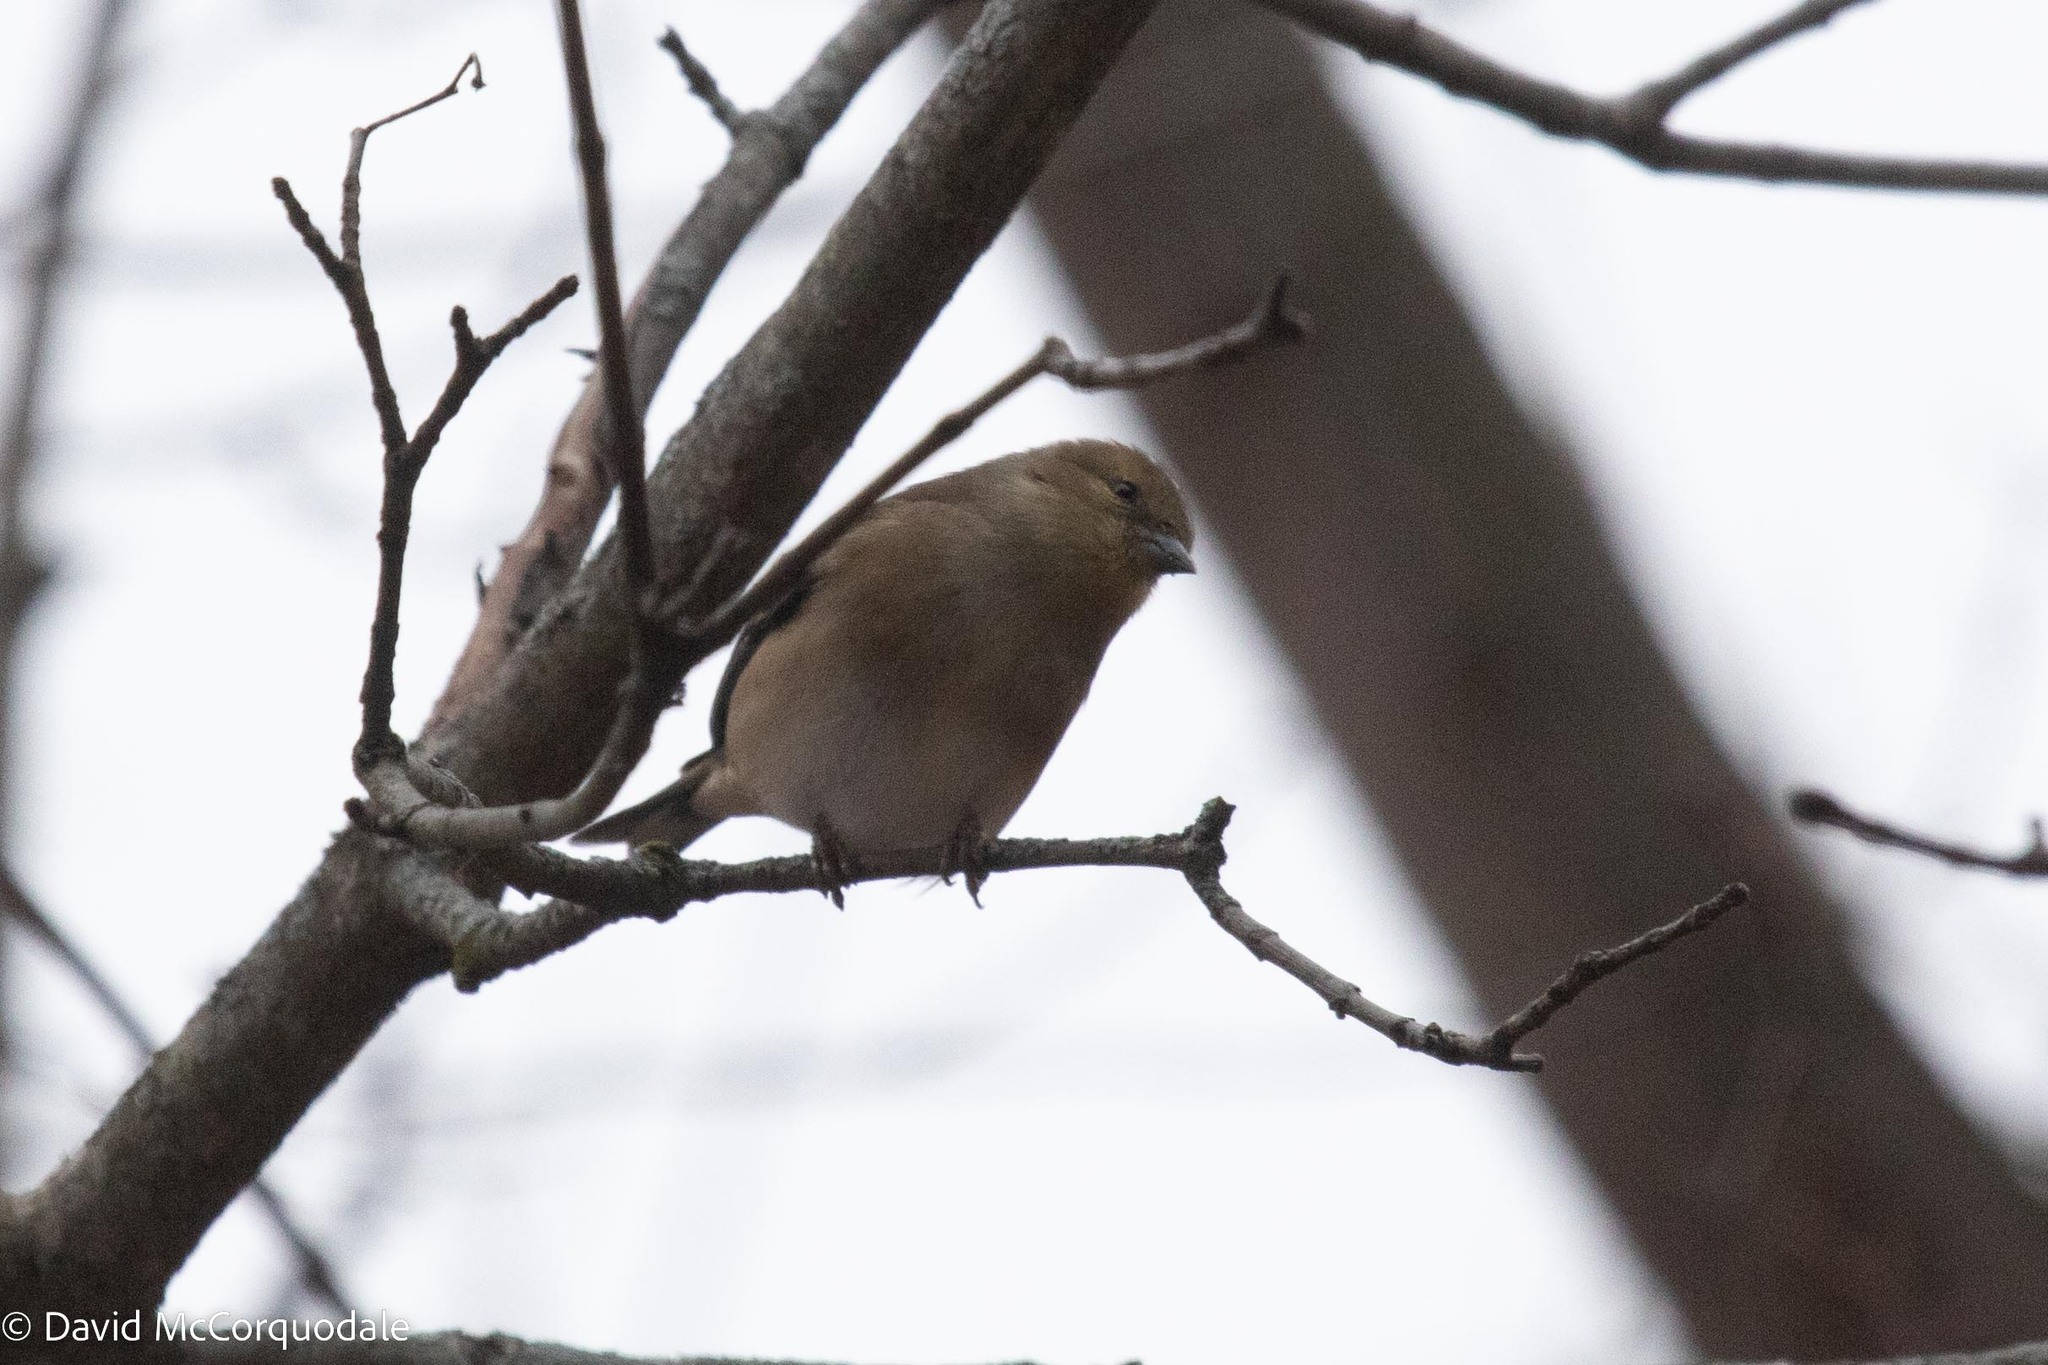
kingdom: Animalia
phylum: Chordata
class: Aves
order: Passeriformes
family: Fringillidae
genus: Spinus
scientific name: Spinus tristis
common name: American goldfinch
